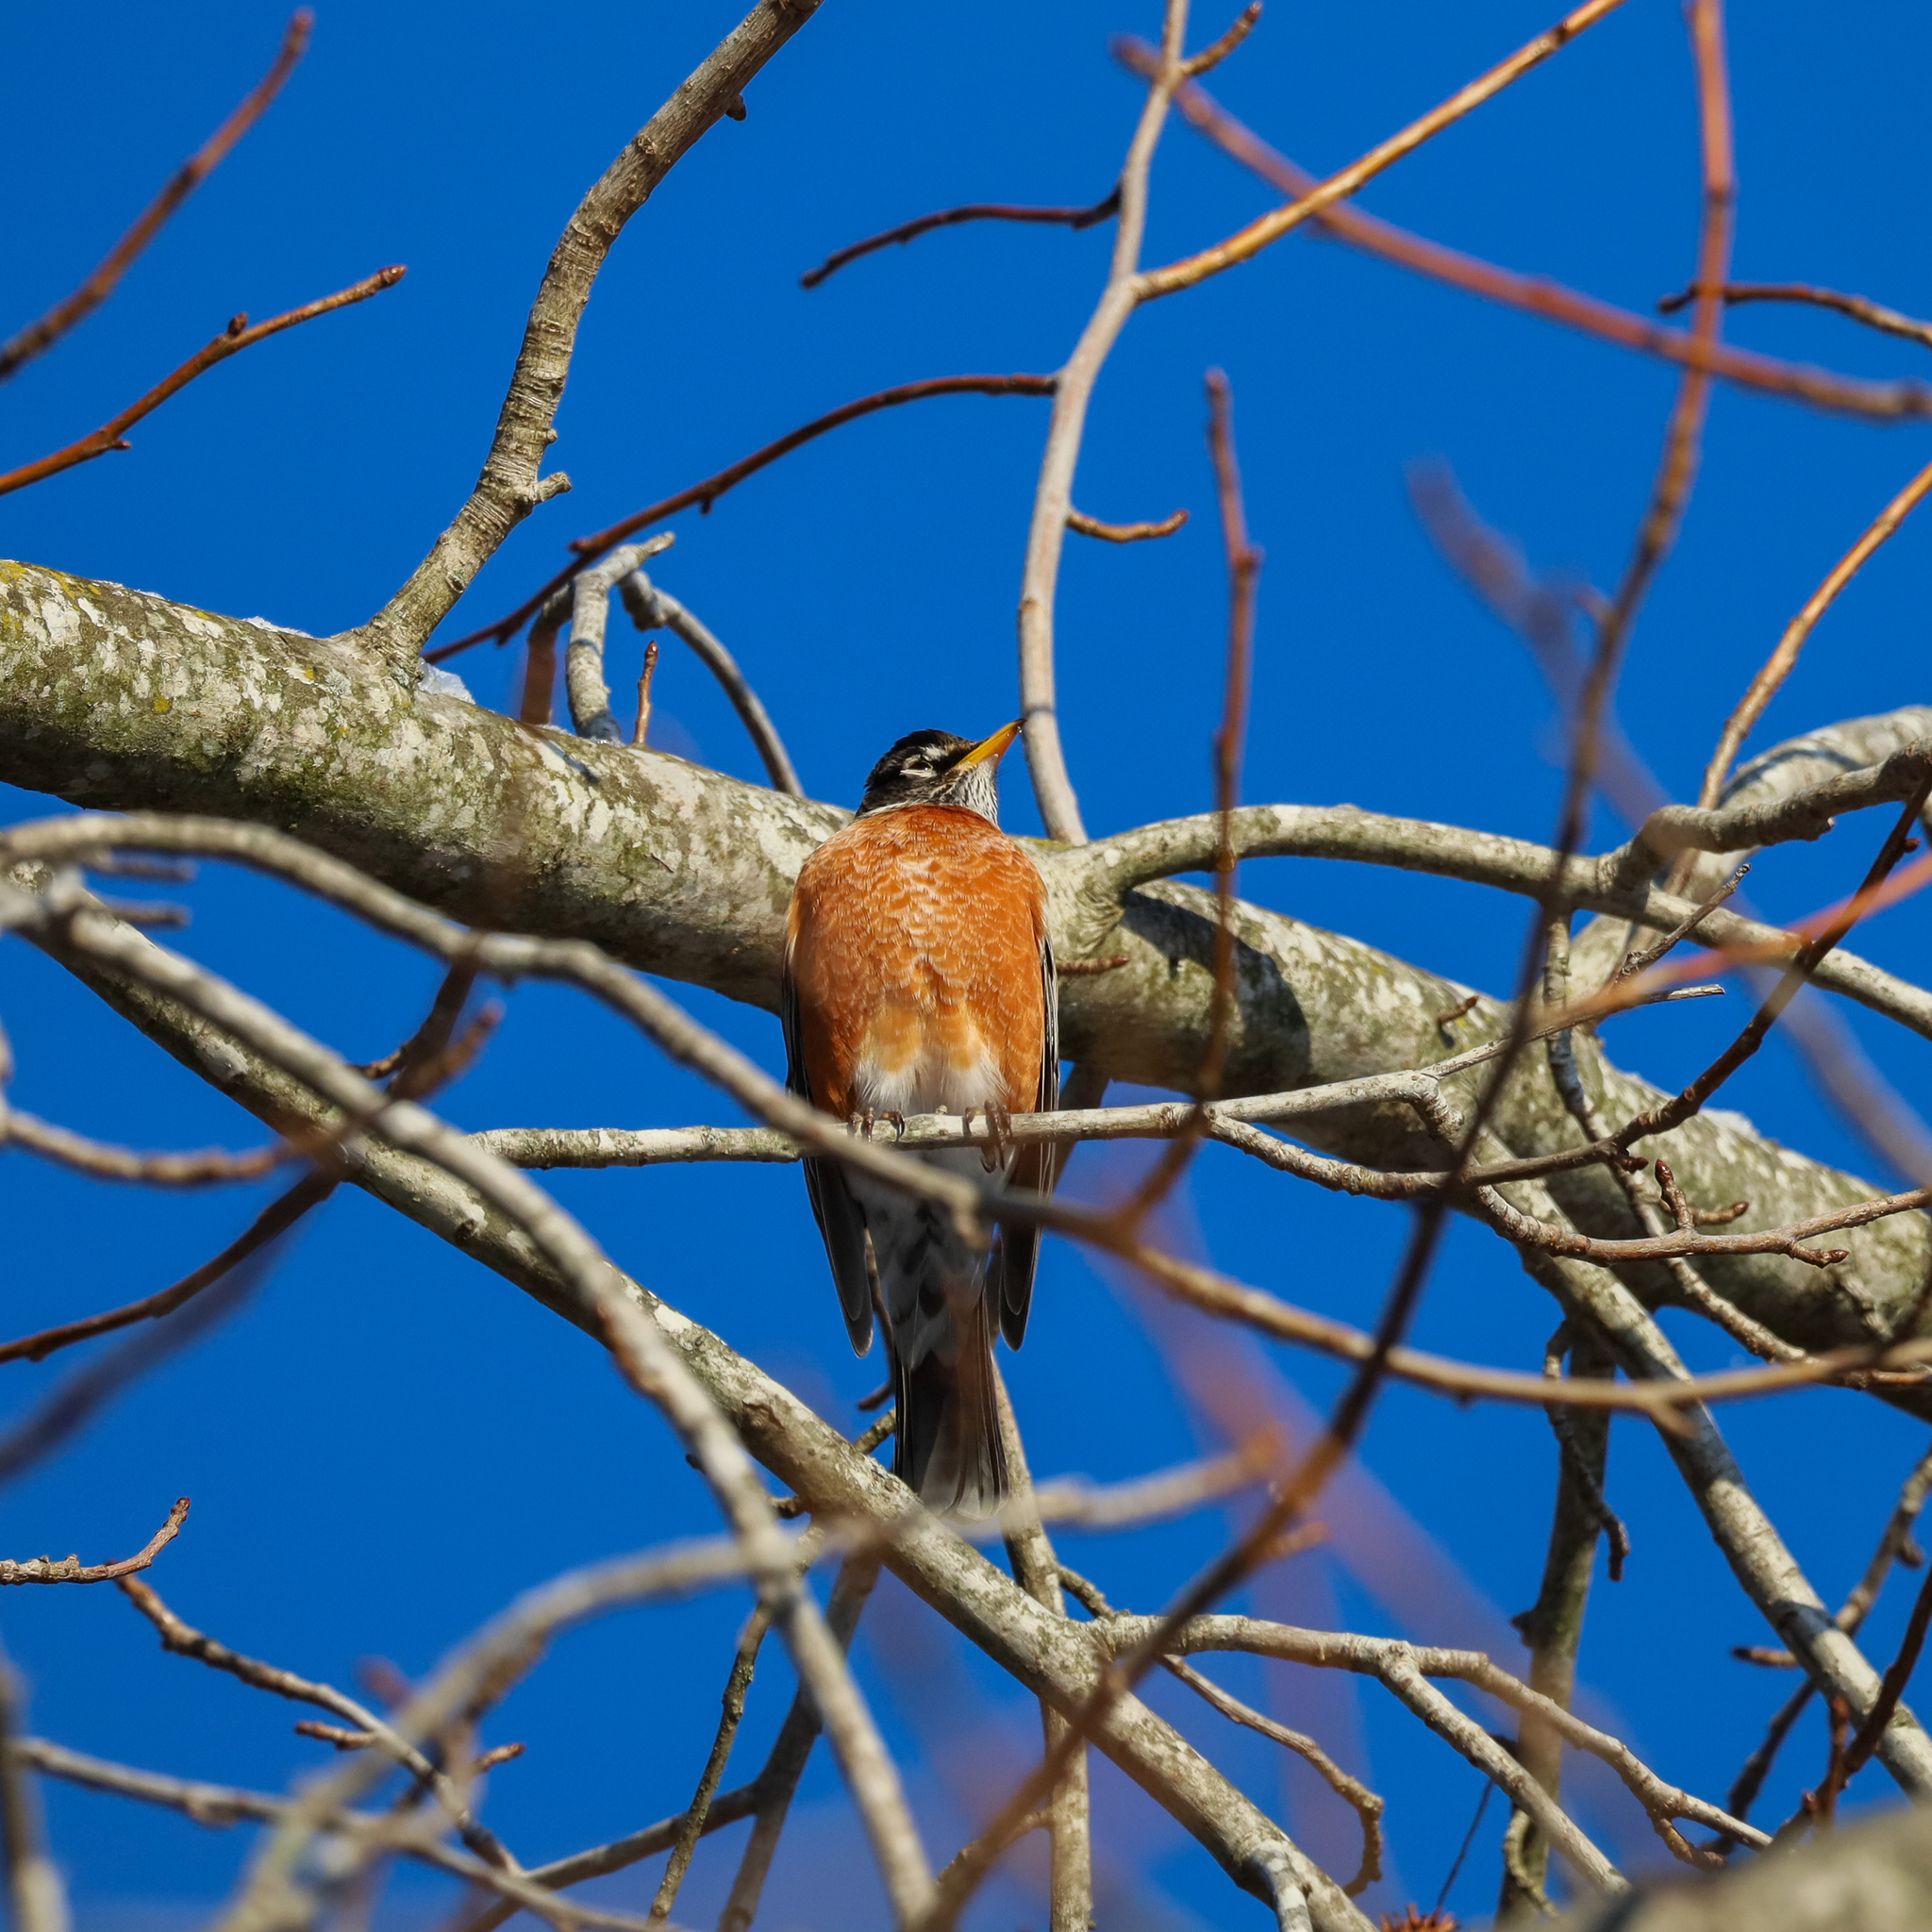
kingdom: Animalia
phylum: Chordata
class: Aves
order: Passeriformes
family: Turdidae
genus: Turdus
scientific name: Turdus migratorius
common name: American robin
